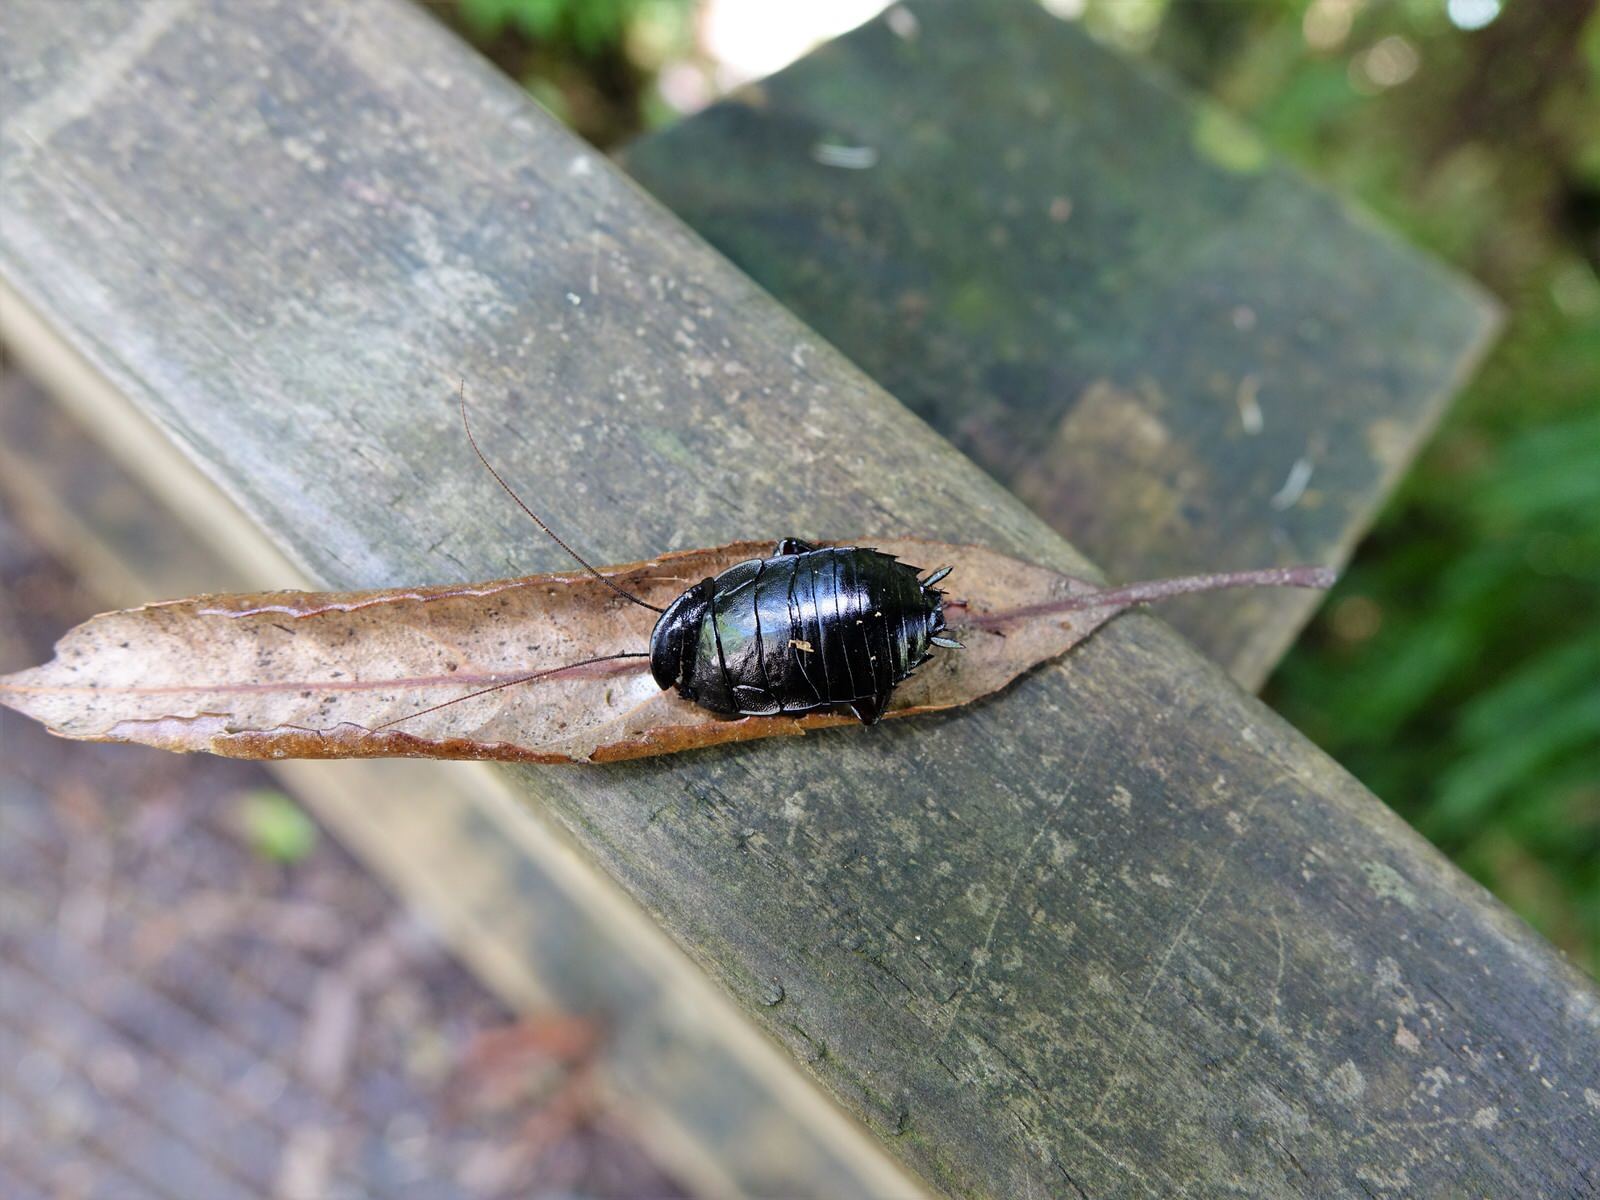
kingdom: Animalia
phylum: Arthropoda
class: Insecta
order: Blattodea
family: Blattidae
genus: Maoriblatta
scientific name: Maoriblatta novaeseelandiae
